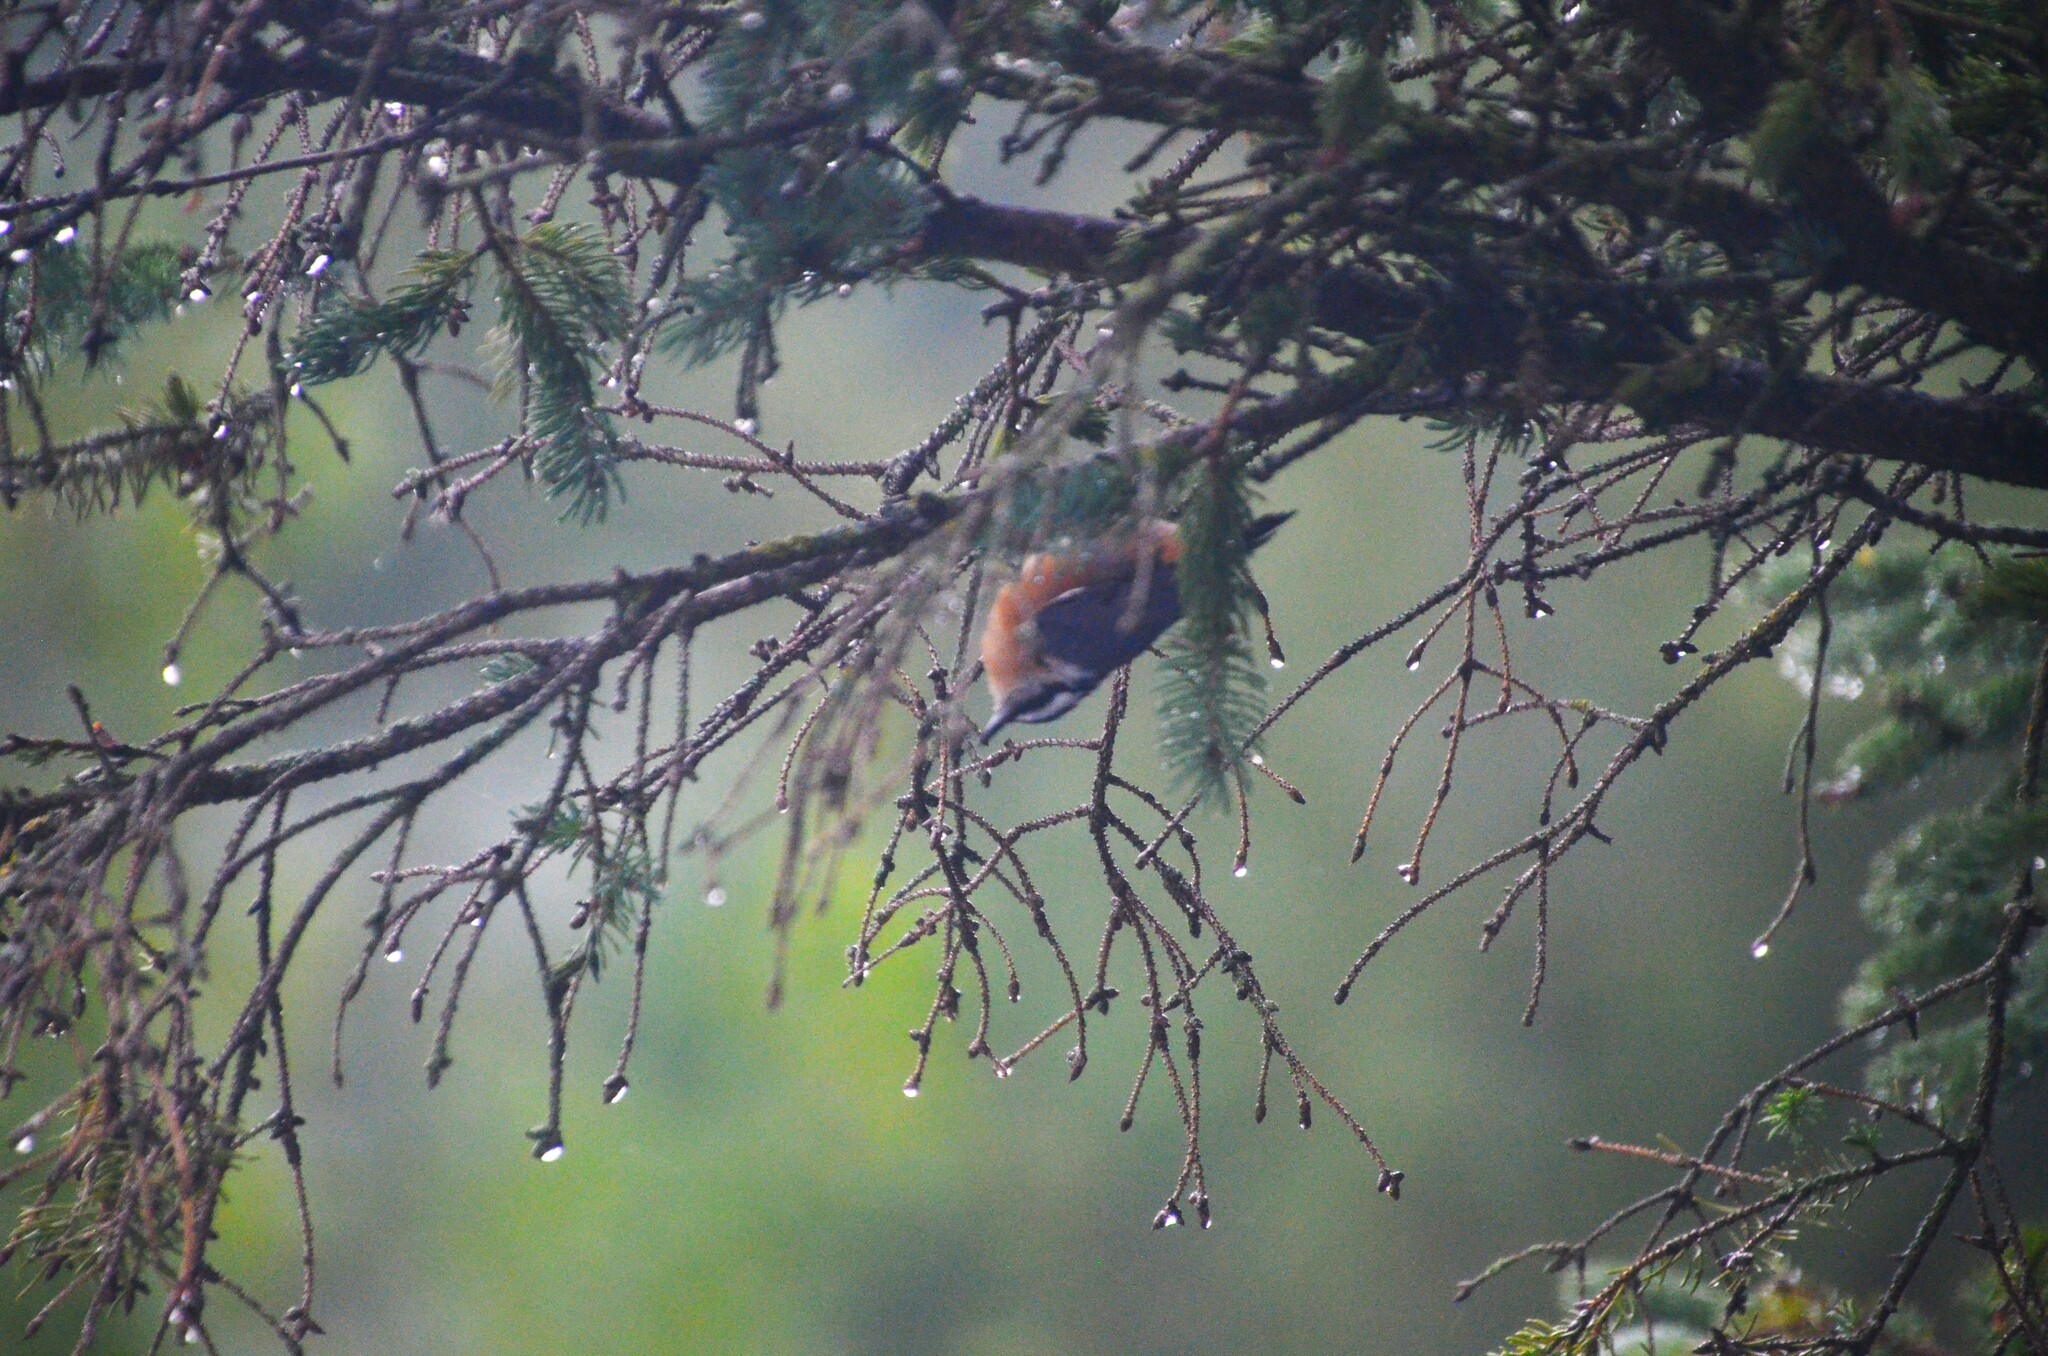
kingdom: Animalia
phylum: Chordata
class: Aves
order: Passeriformes
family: Sittidae
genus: Sitta
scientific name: Sitta canadensis
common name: Red-breasted nuthatch
